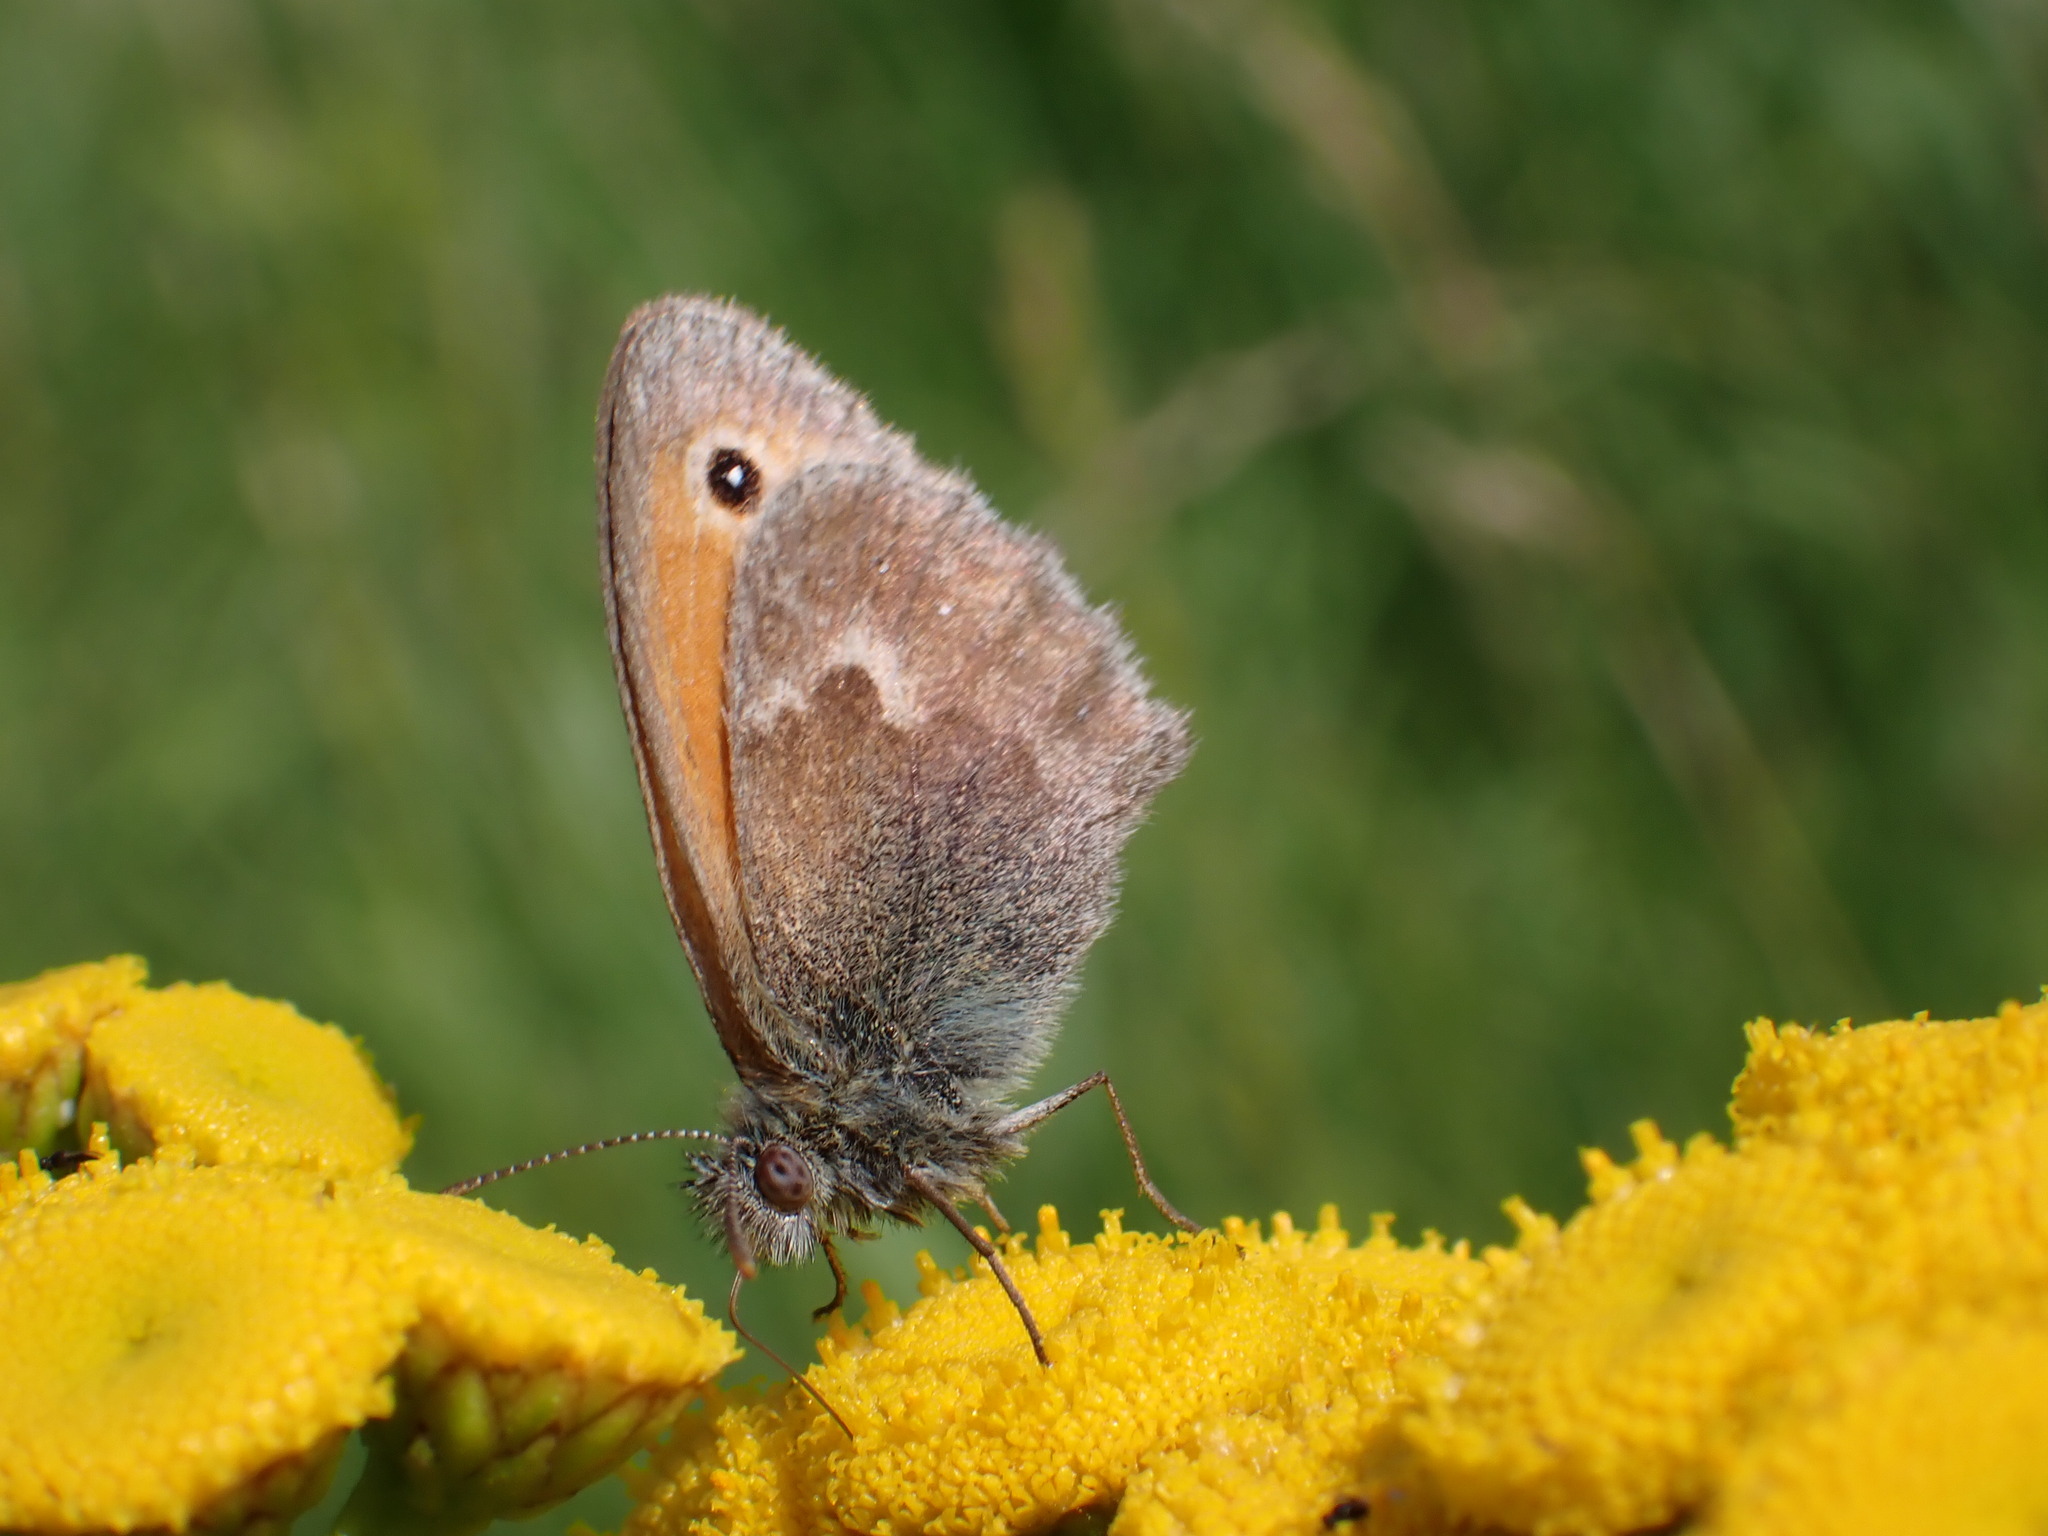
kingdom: Animalia
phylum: Arthropoda
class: Insecta
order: Lepidoptera
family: Nymphalidae
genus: Coenonympha
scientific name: Coenonympha pamphilus
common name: Small heath
